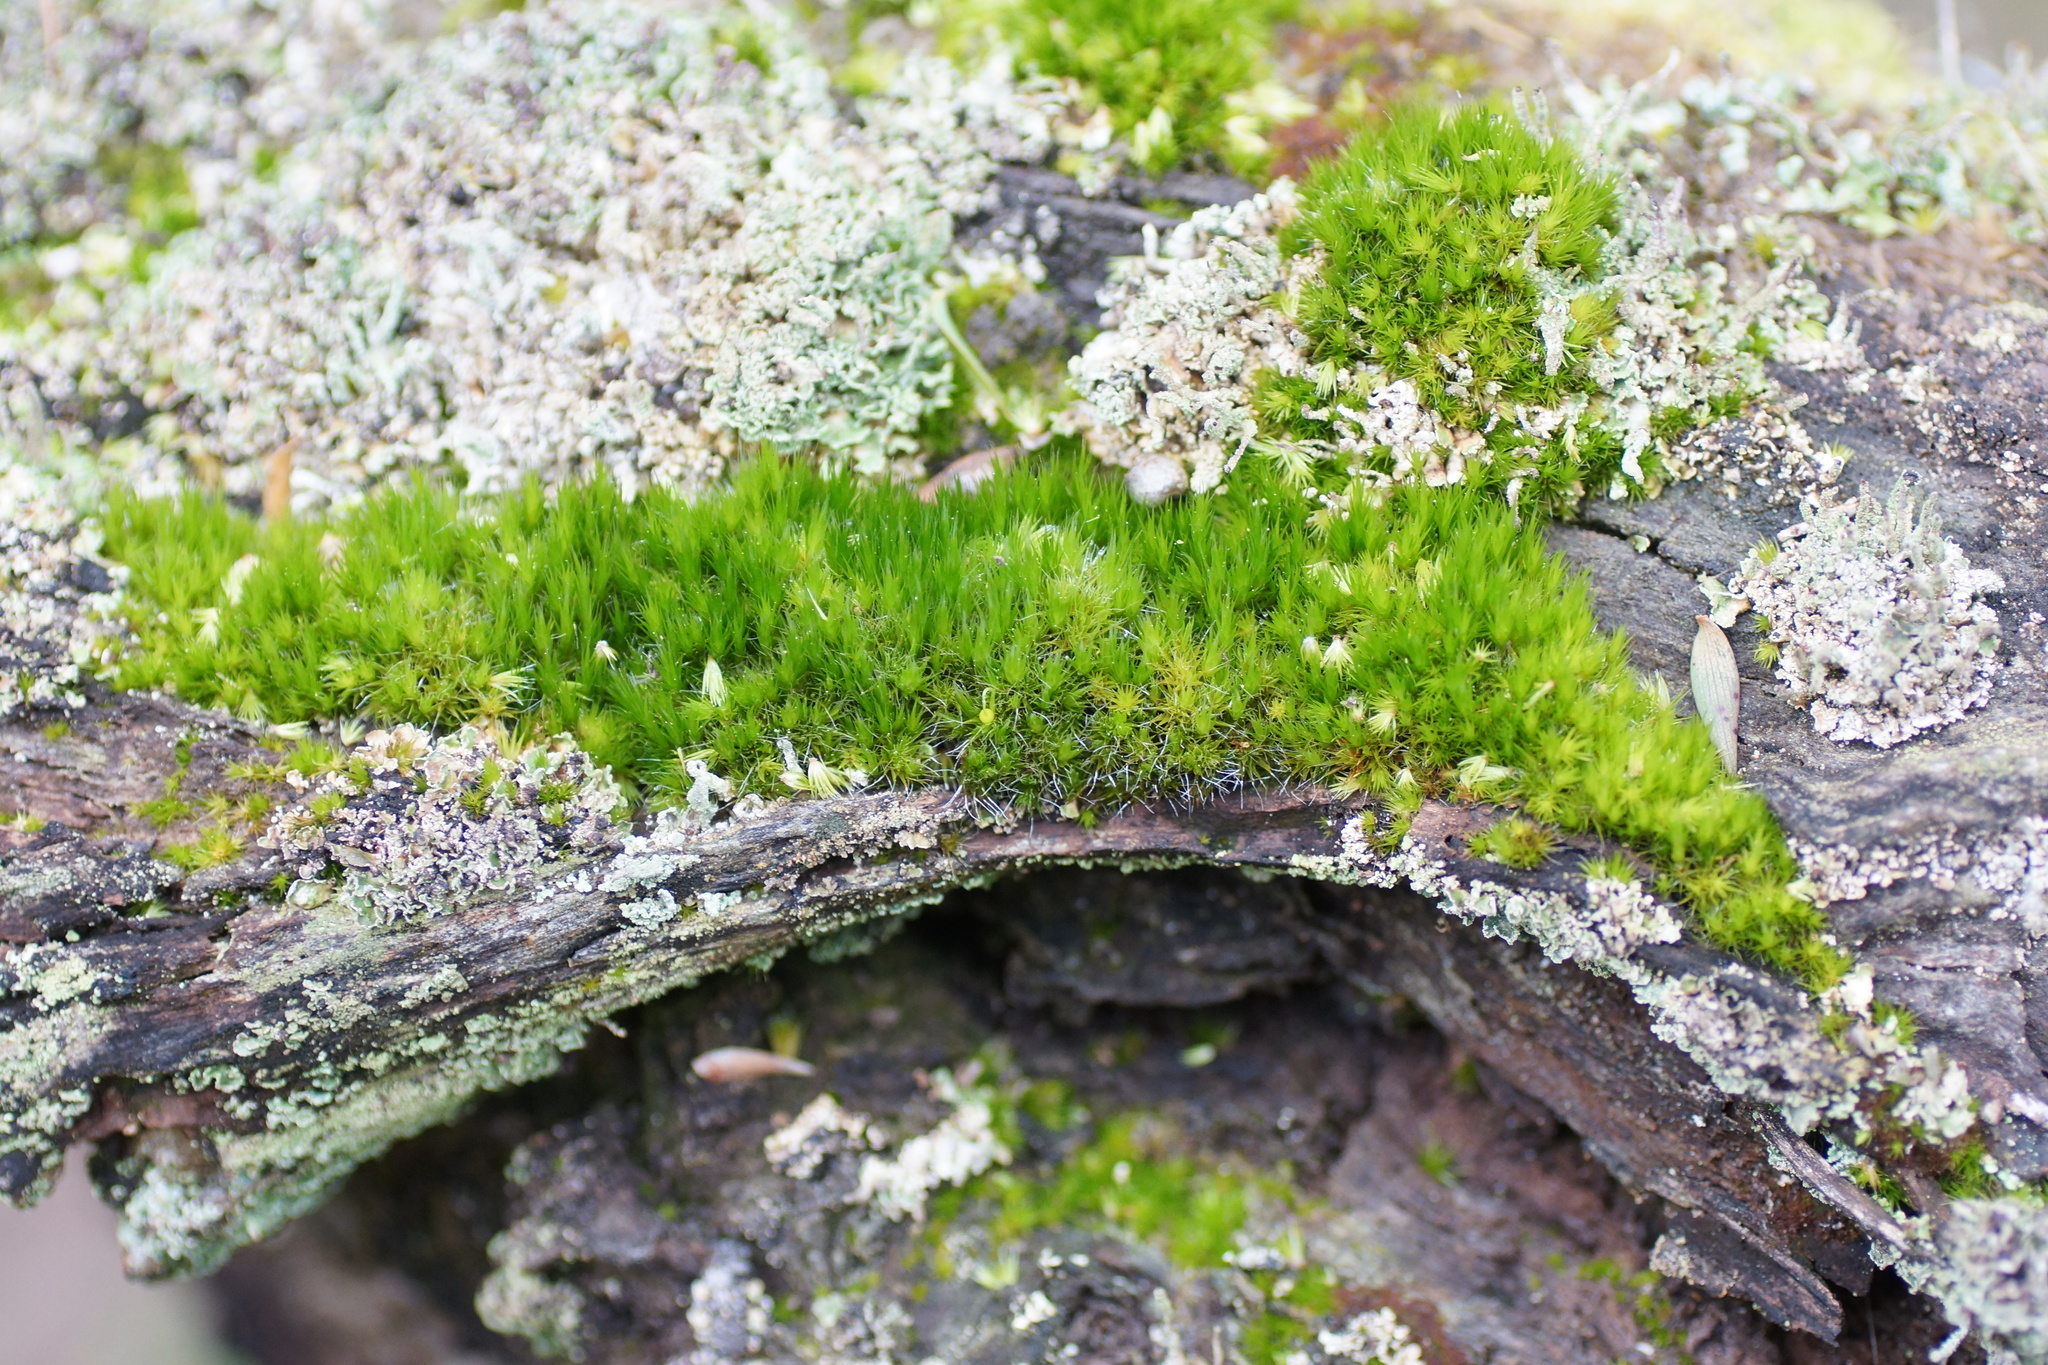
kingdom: Plantae
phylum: Bryophyta
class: Bryopsida
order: Dicranales
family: Leucobryaceae
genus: Campylopus
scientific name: Campylopus introflexus
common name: Heath star moss
